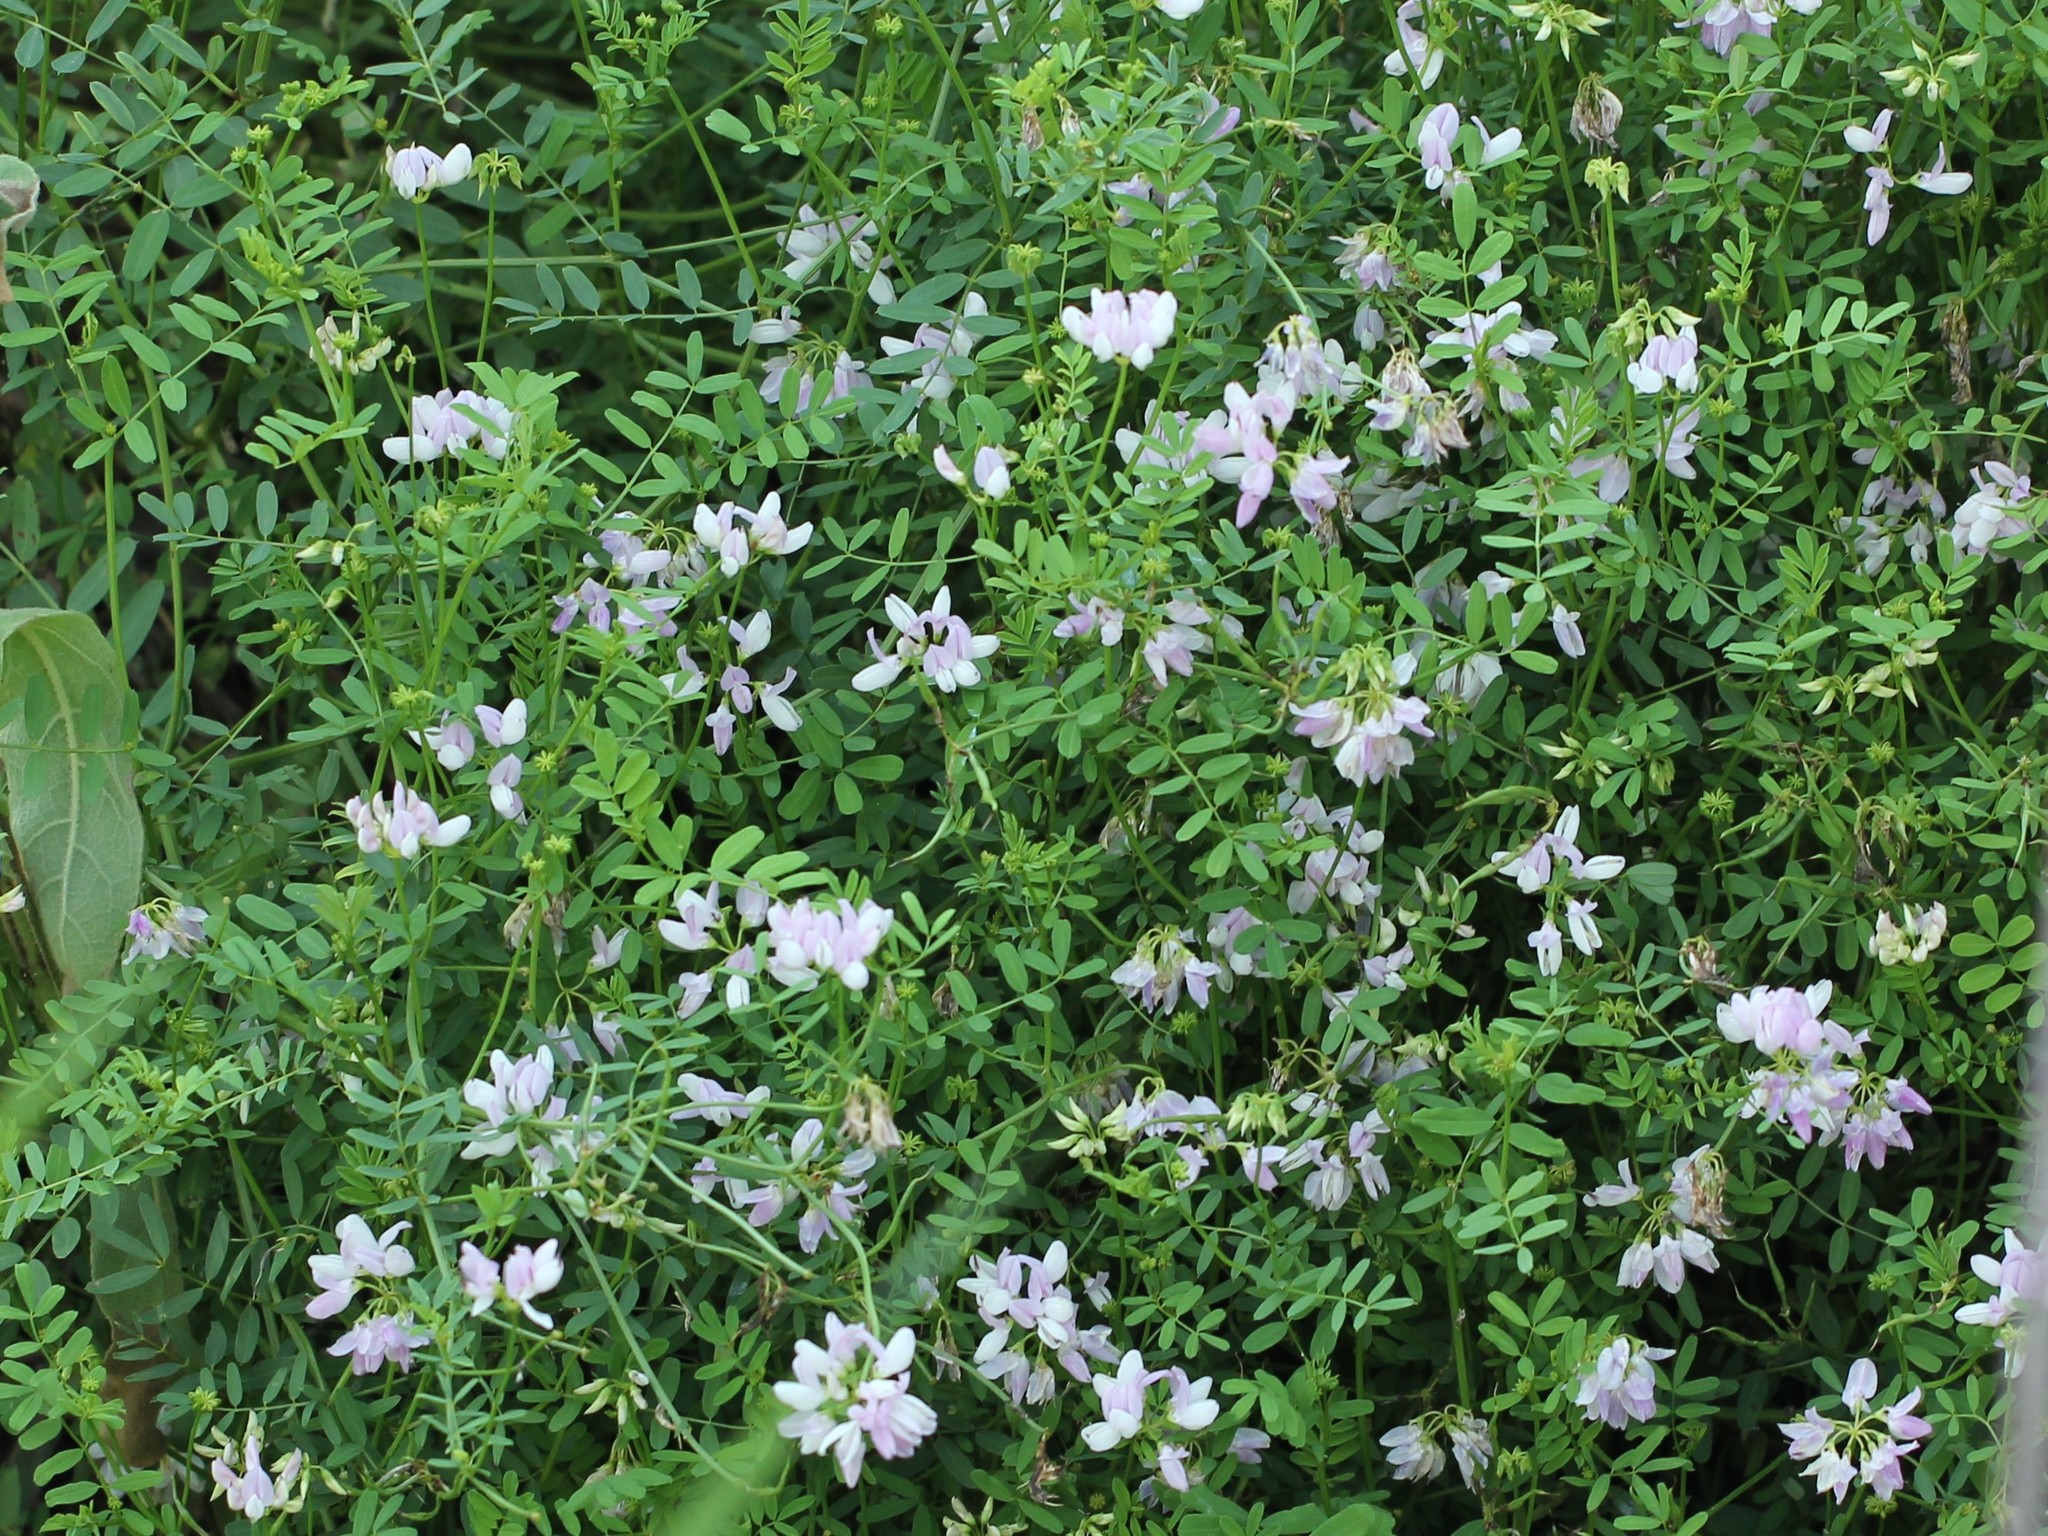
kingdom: Plantae
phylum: Tracheophyta
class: Magnoliopsida
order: Fabales
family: Fabaceae
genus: Coronilla
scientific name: Coronilla varia
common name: Crownvetch
